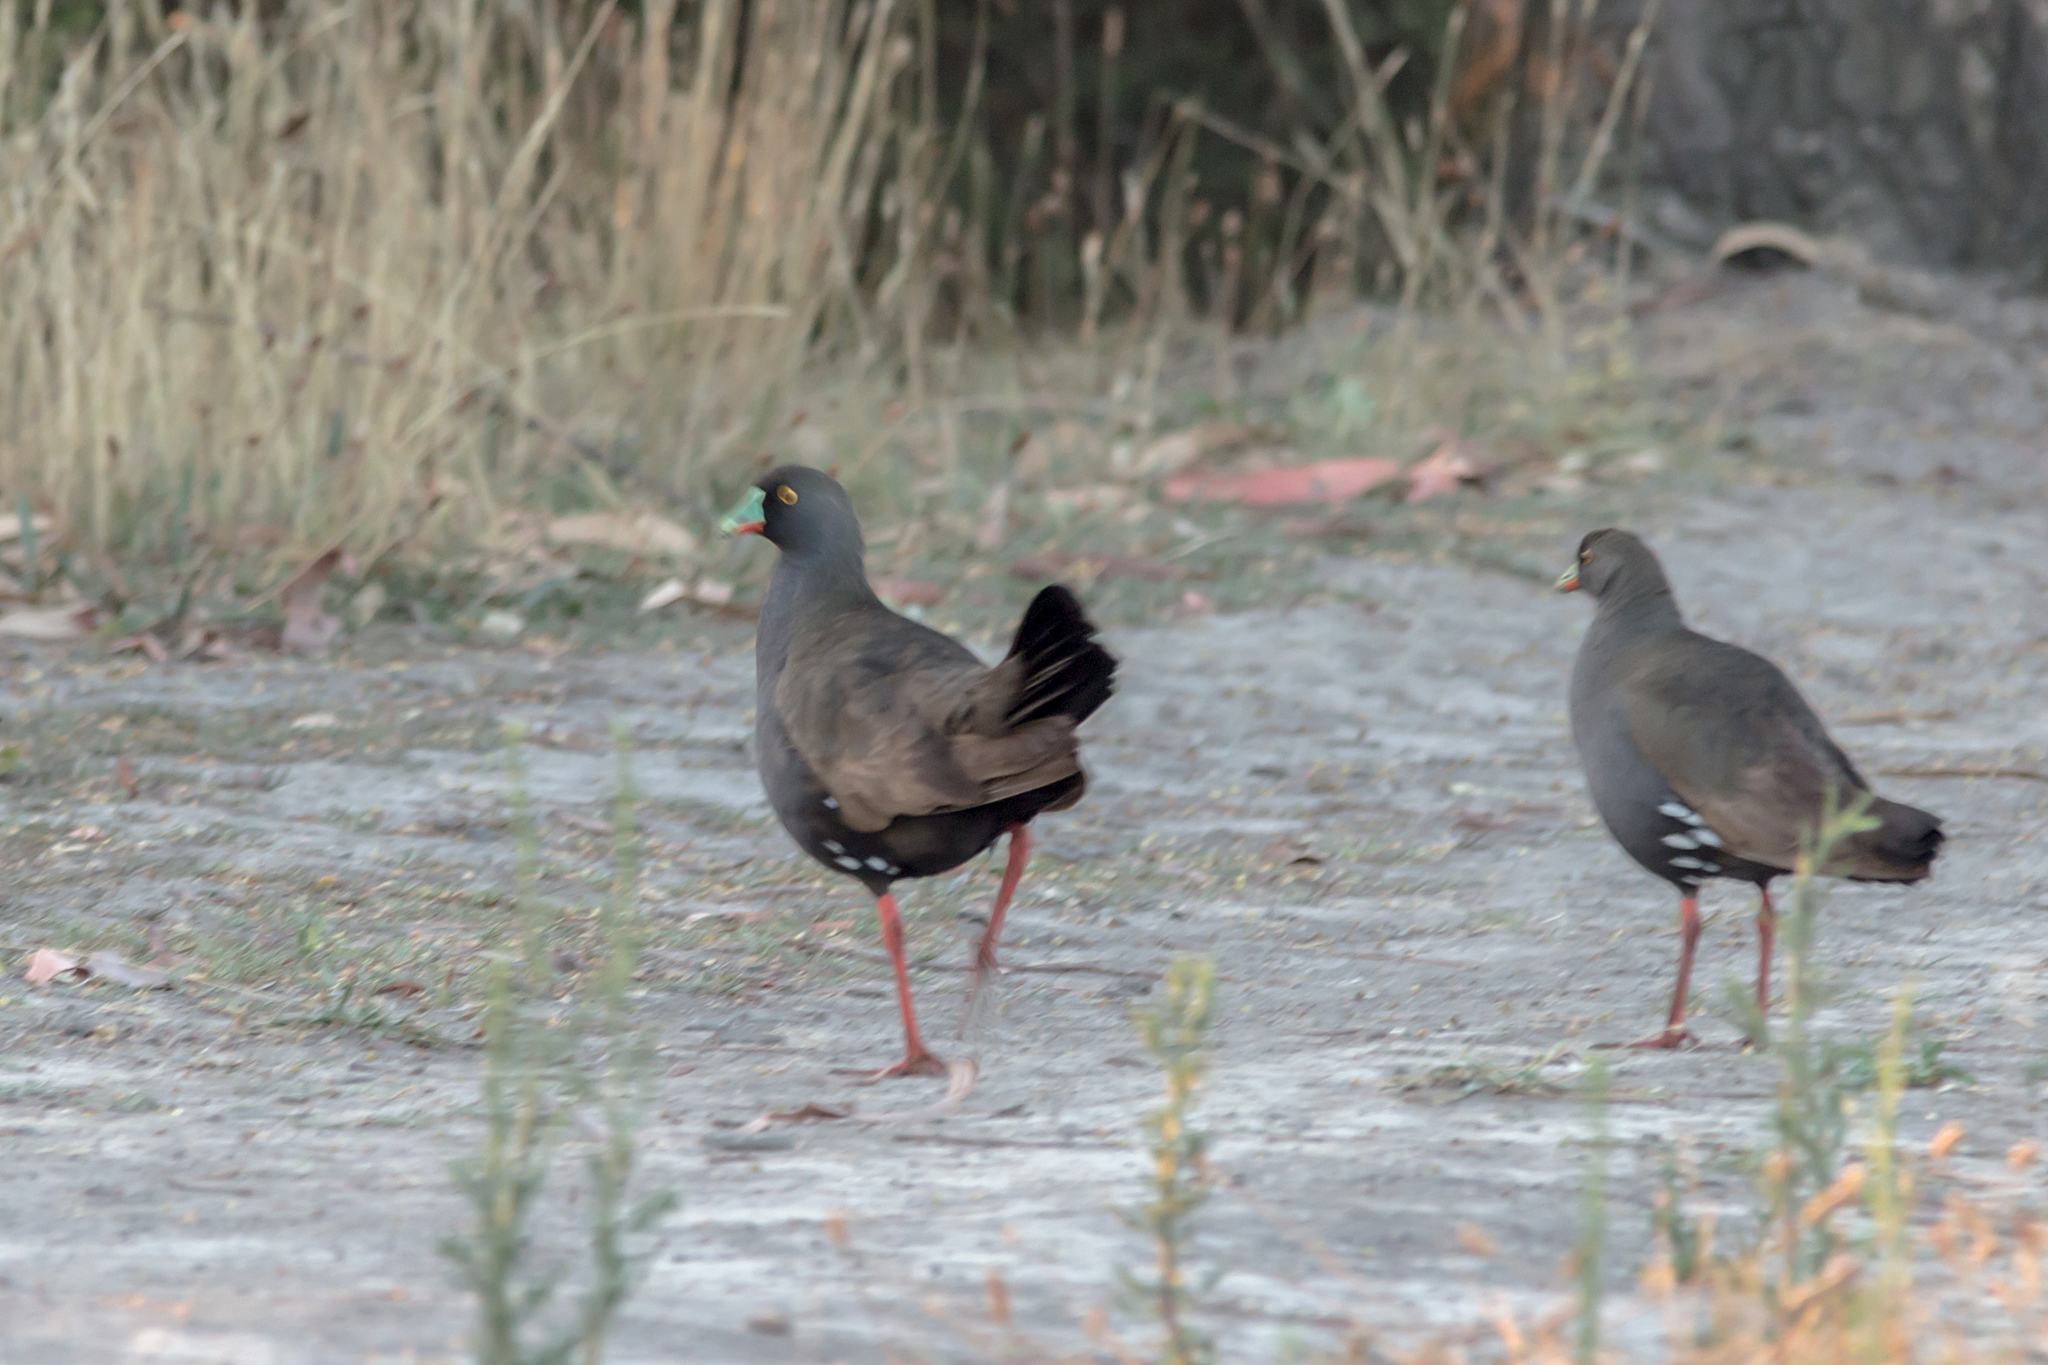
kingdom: Animalia
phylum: Chordata
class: Aves
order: Gruiformes
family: Rallidae
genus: Gallinula
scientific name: Gallinula ventralis
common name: Black-tailed nativehen
